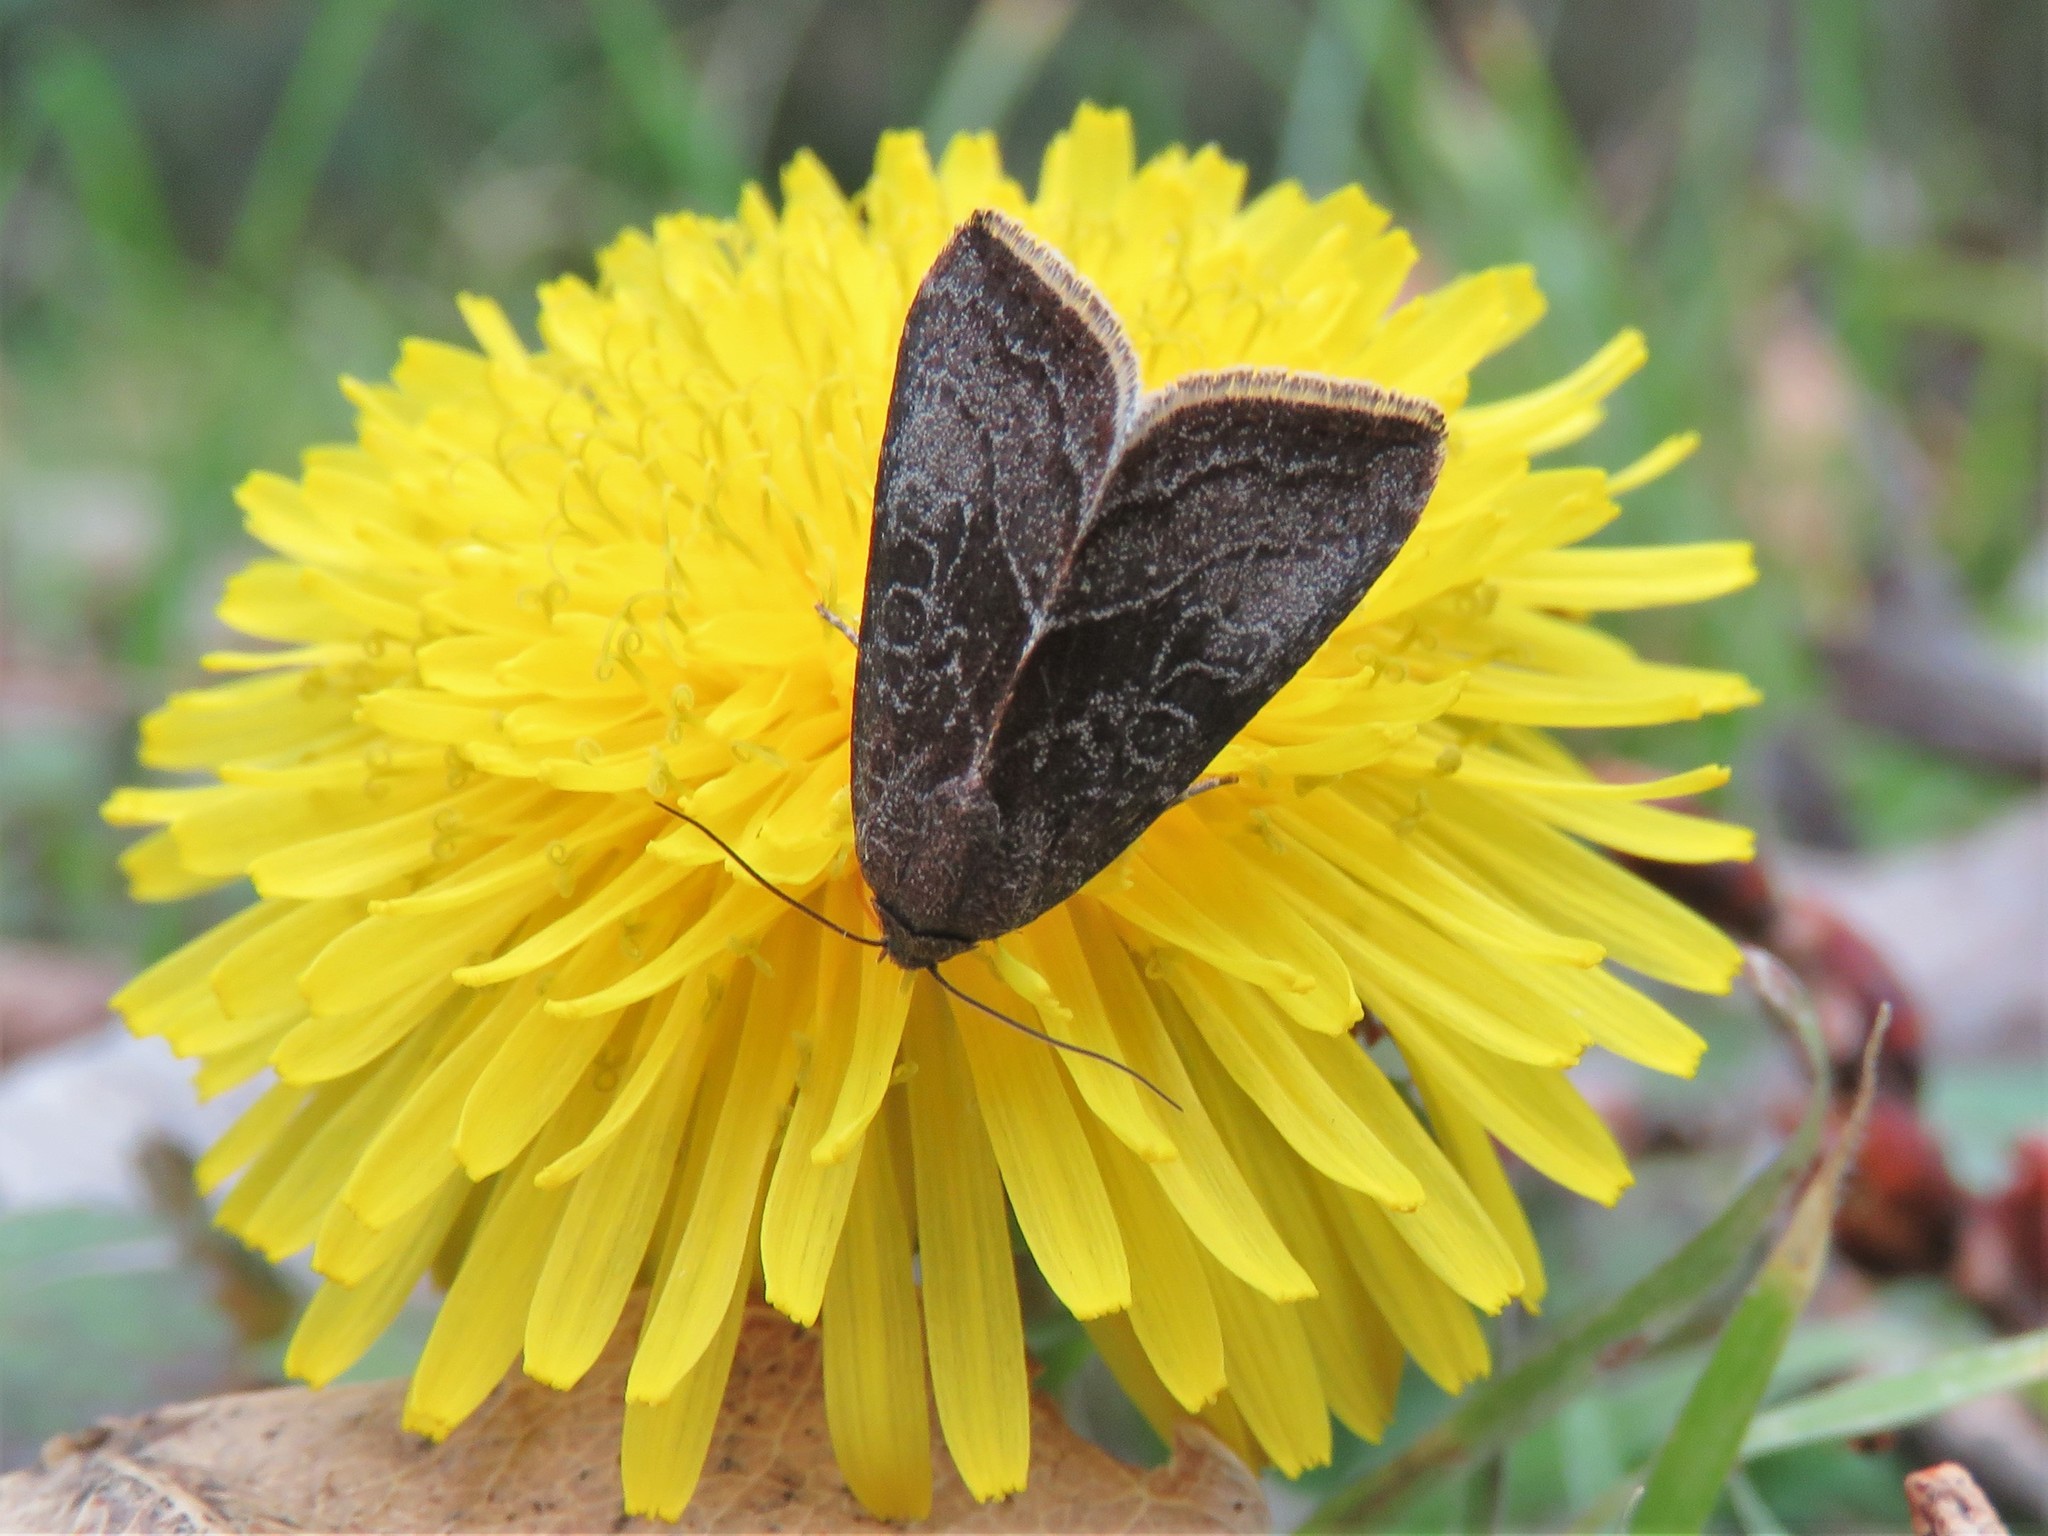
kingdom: Animalia
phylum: Arthropoda
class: Insecta
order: Lepidoptera
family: Noctuidae
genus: Galgula
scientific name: Galgula partita
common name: Wedgeling
